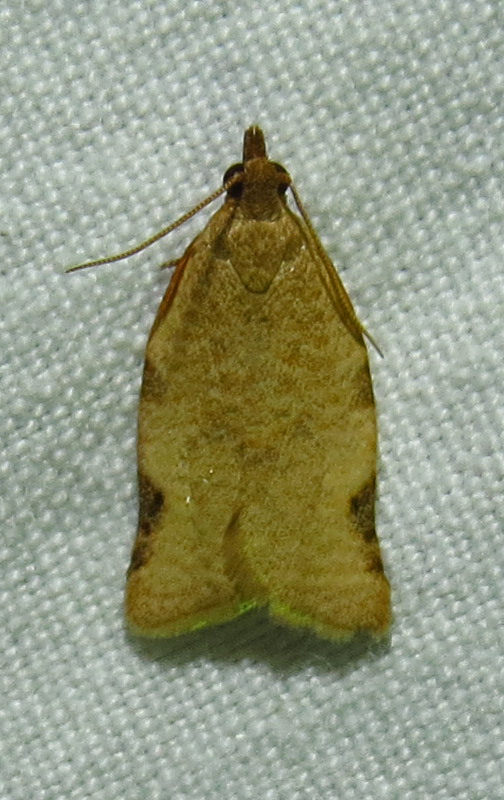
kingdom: Animalia
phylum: Arthropoda
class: Insecta
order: Lepidoptera
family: Tortricidae
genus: Clepsis
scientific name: Clepsis virescana
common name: Greenish apple moth
